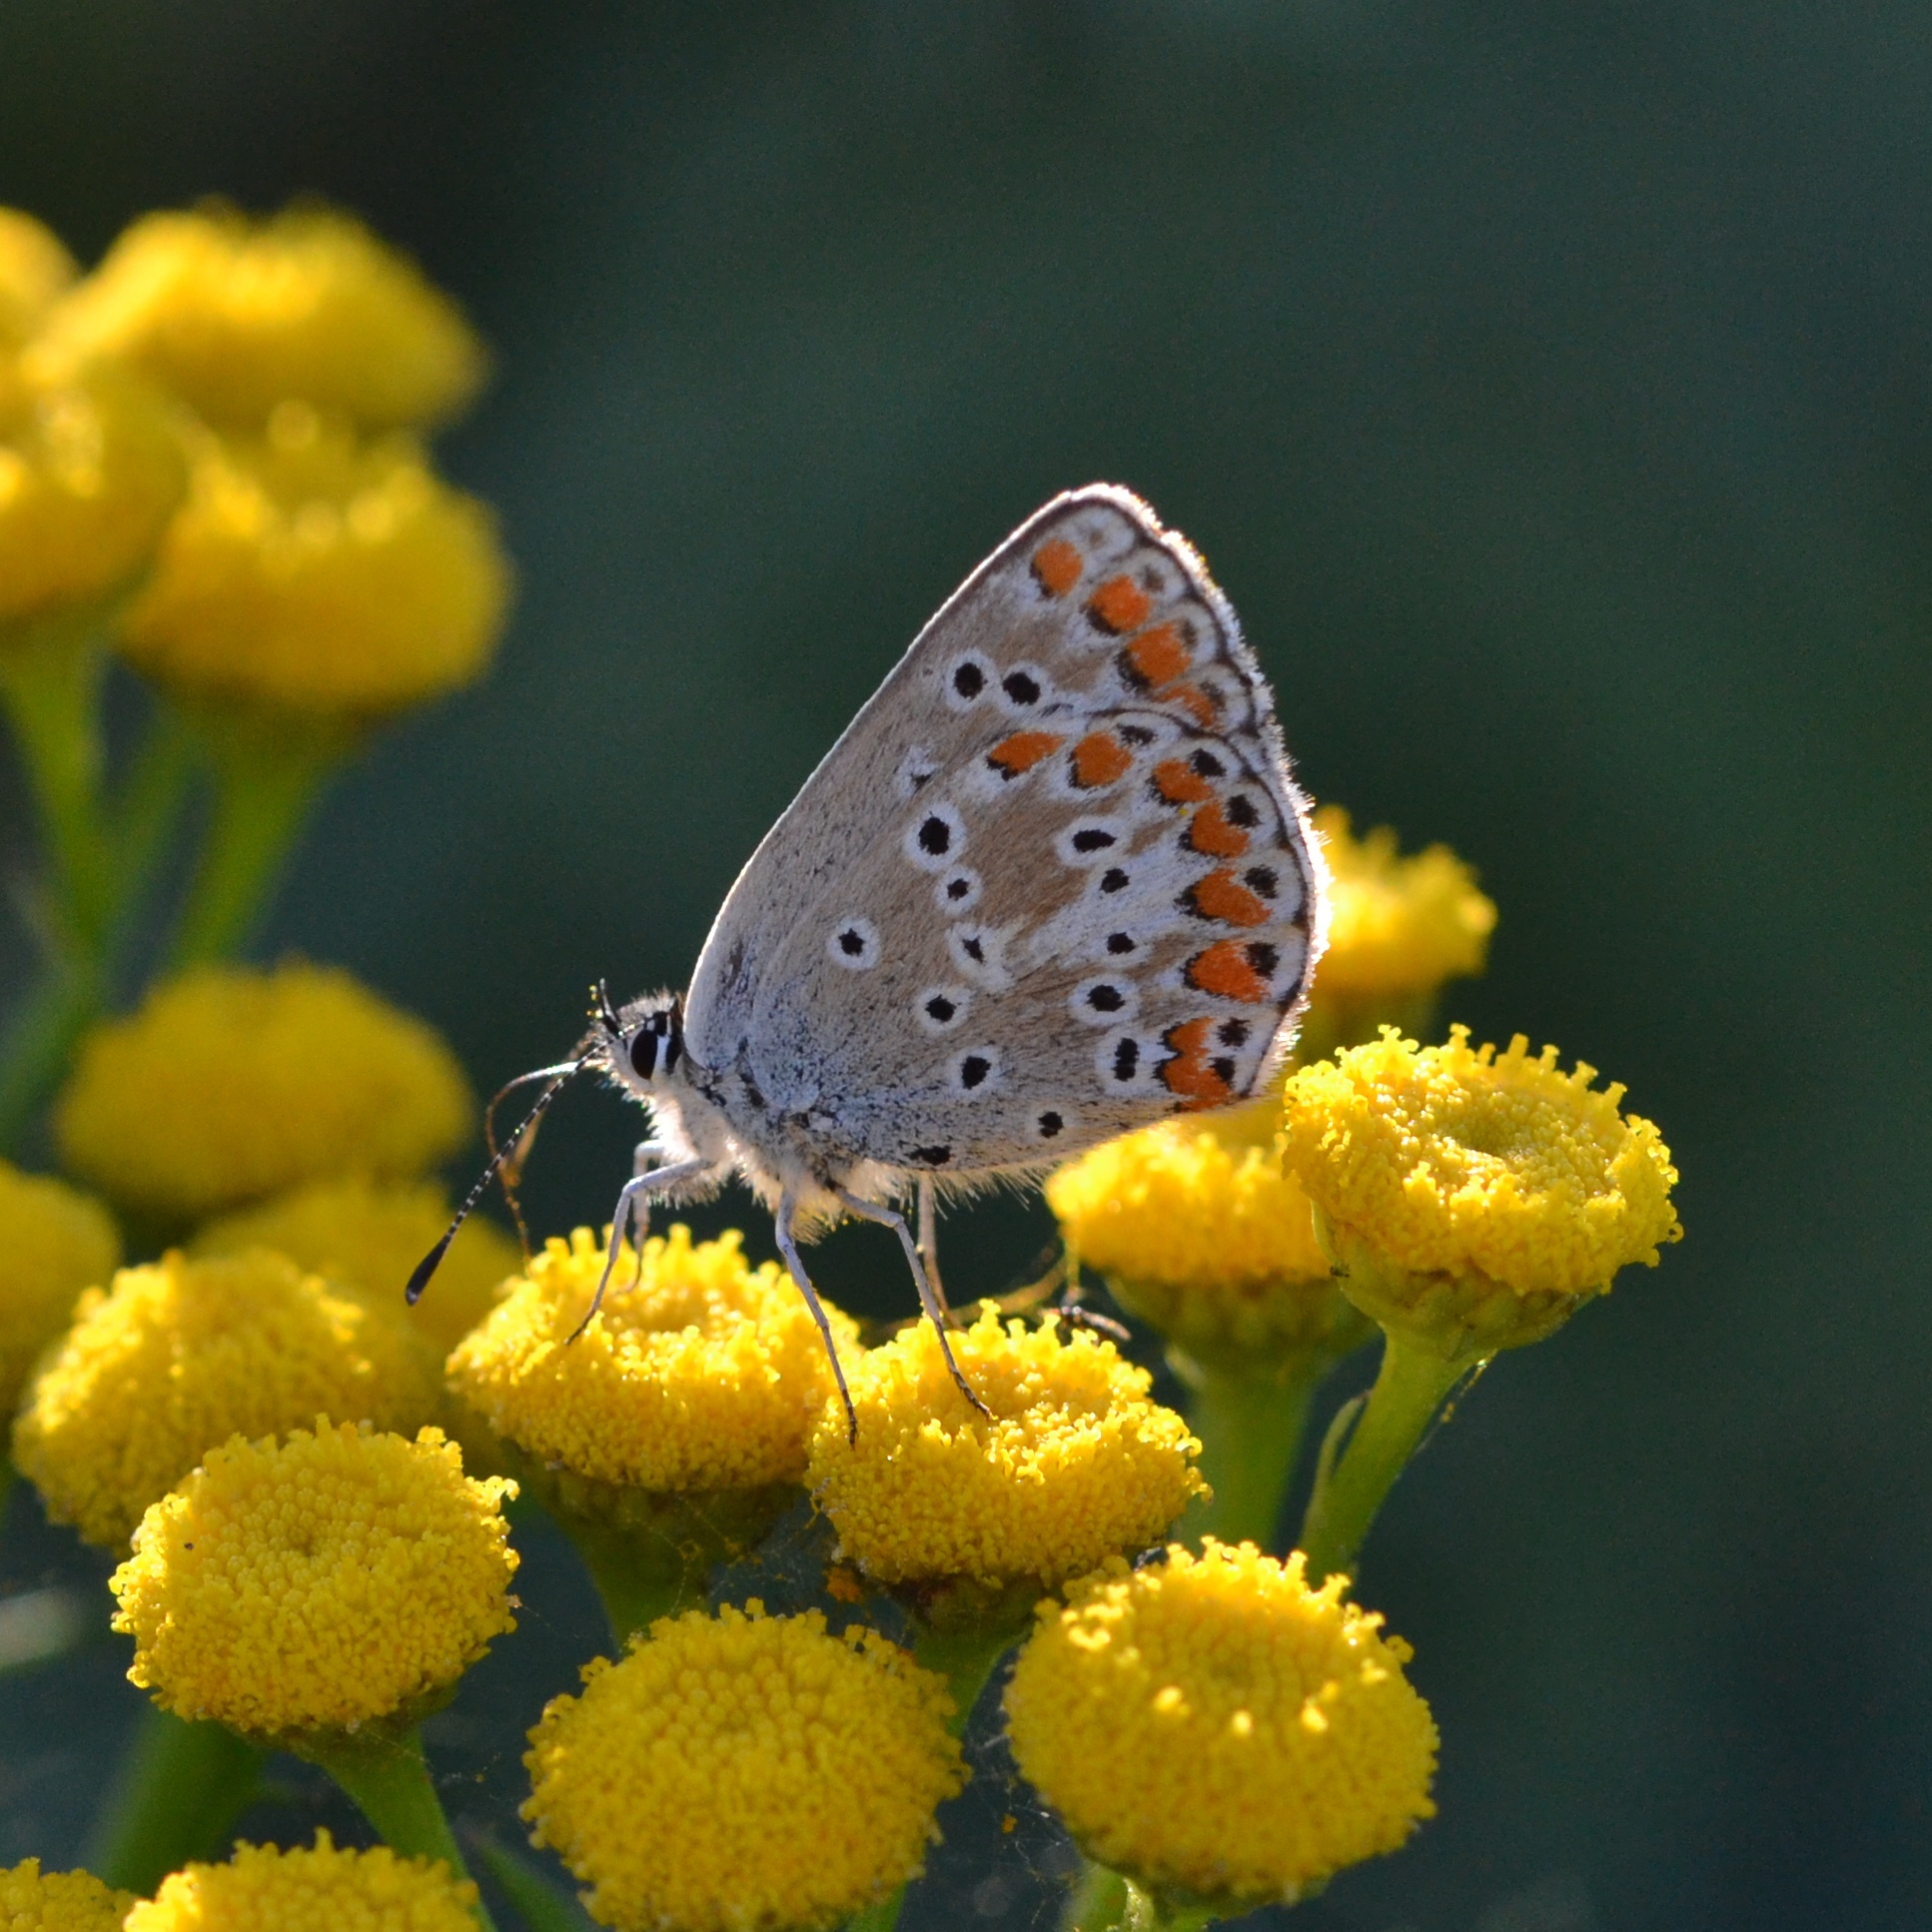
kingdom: Animalia
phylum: Arthropoda
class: Insecta
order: Lepidoptera
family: Lycaenidae
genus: Aricia
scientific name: Aricia agestis
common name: Brown argus
